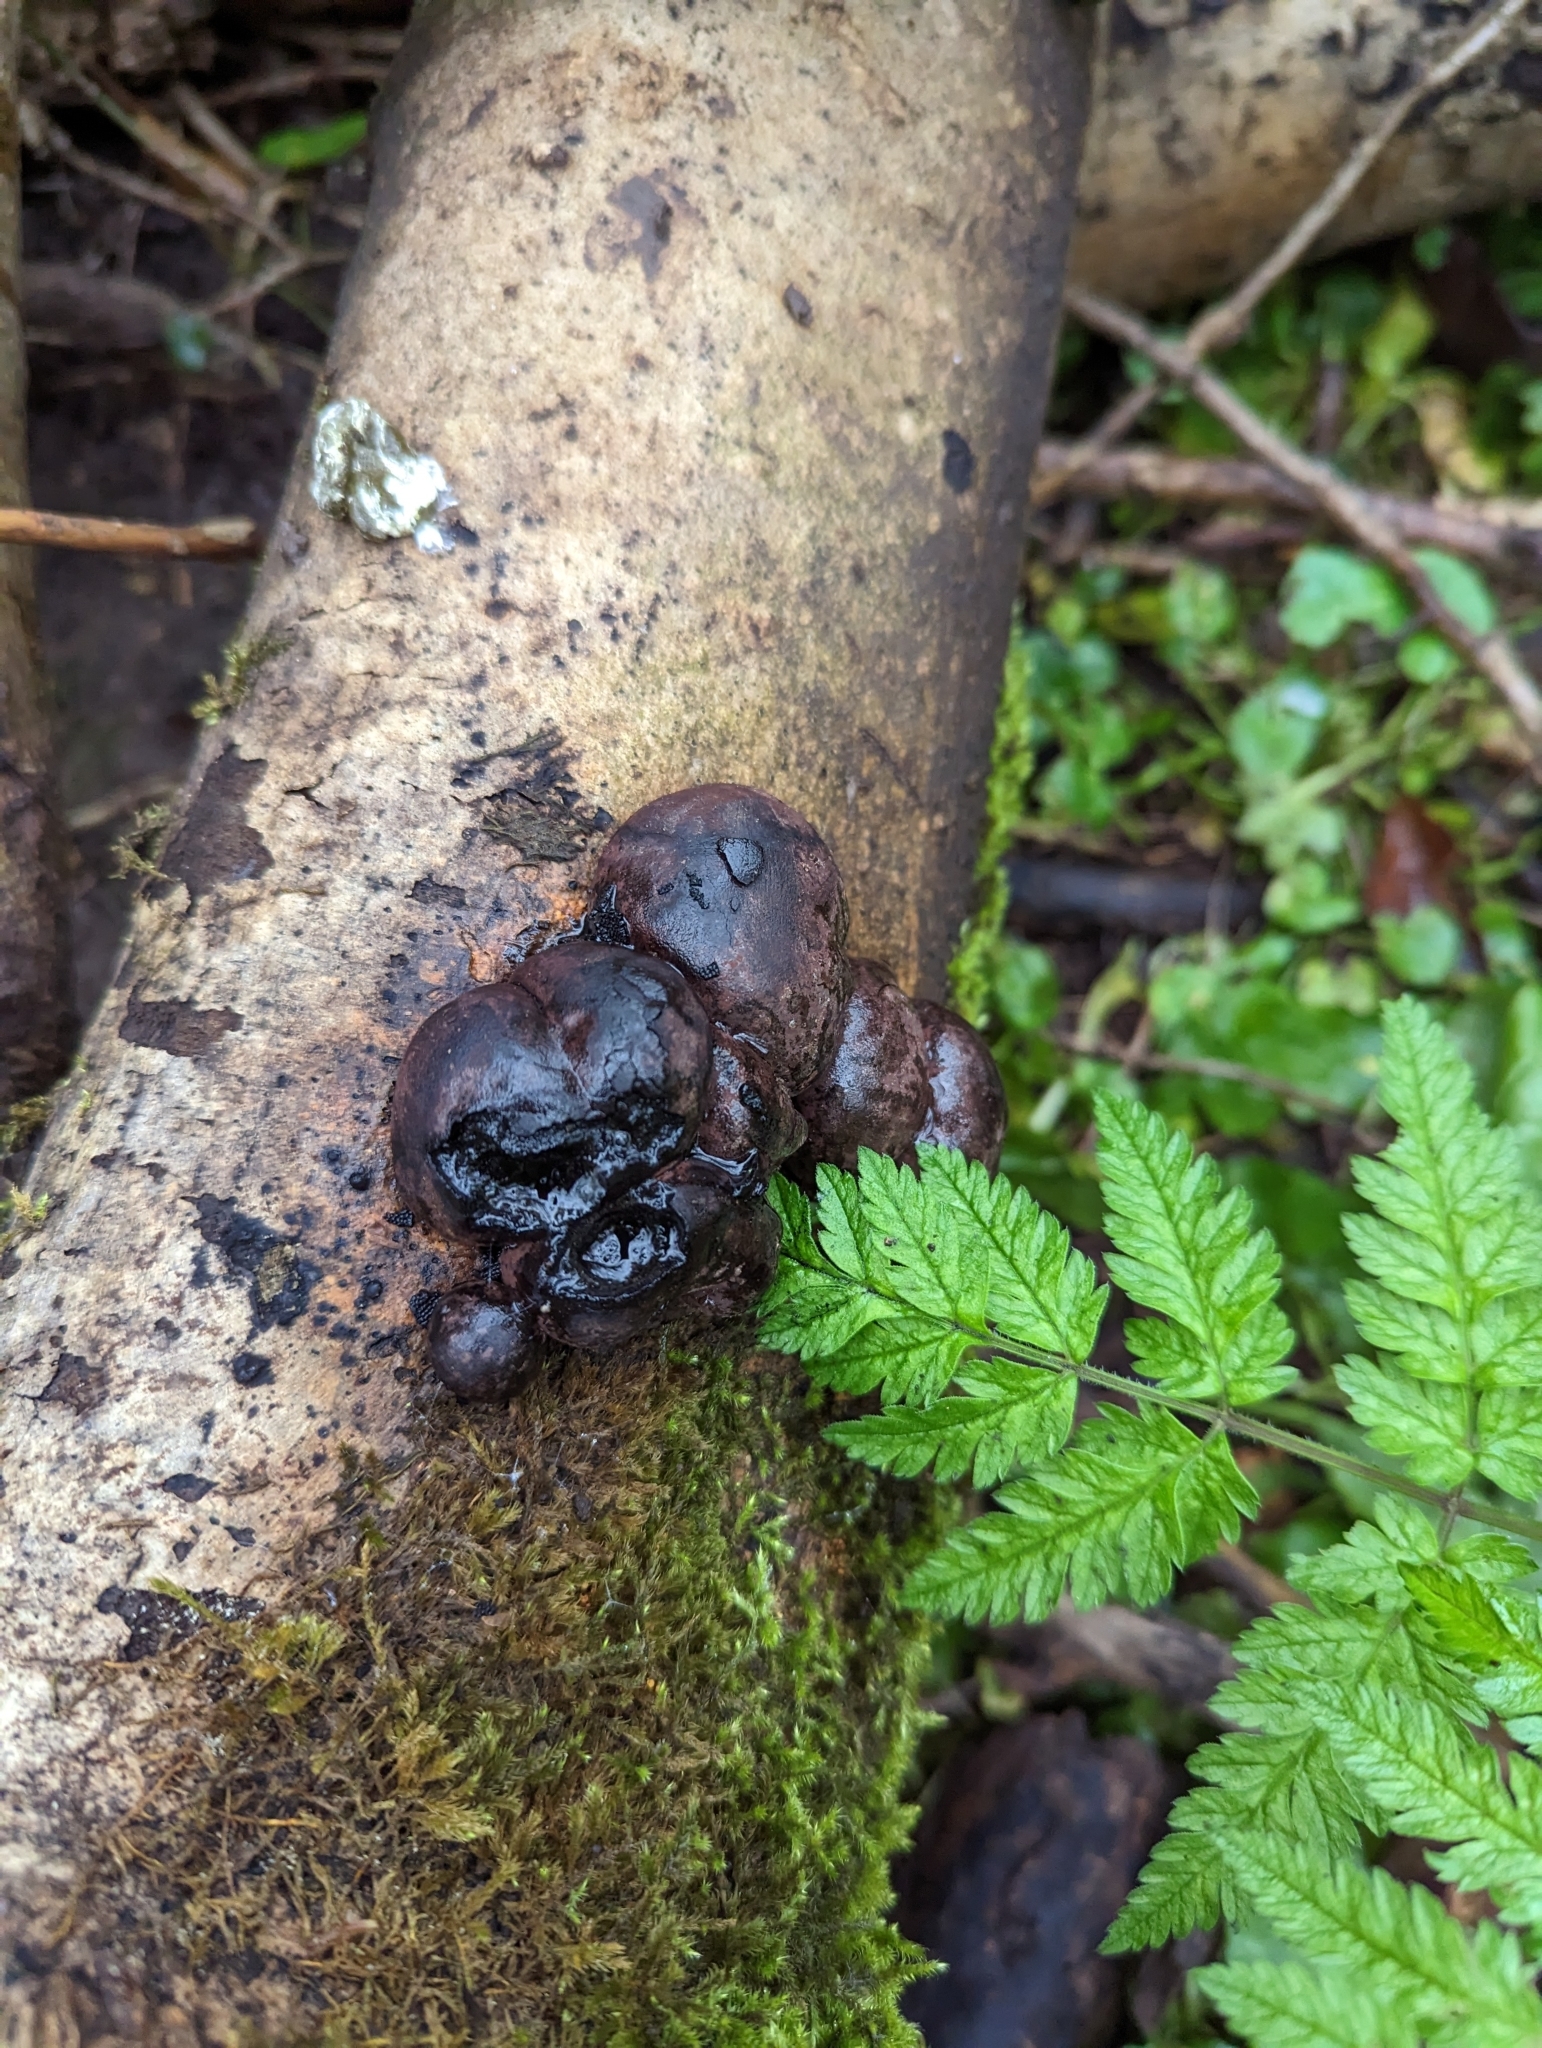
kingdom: Fungi
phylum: Ascomycota
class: Sordariomycetes
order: Xylariales
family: Hypoxylaceae
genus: Daldinia
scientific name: Daldinia concentrica
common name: Cramp balls
